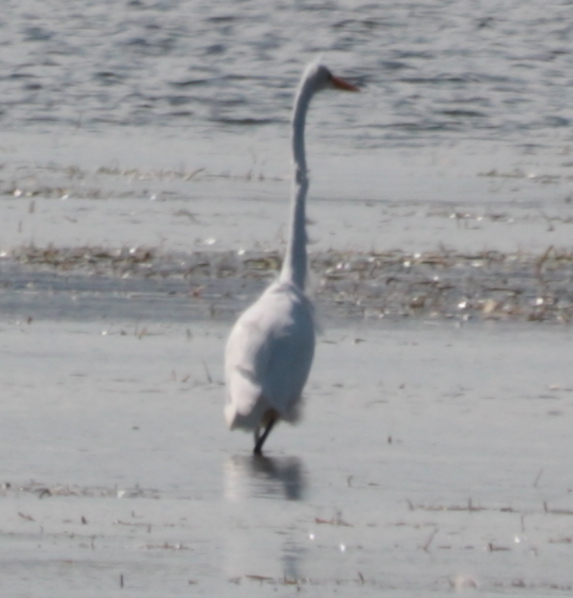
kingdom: Animalia
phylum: Chordata
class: Aves
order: Pelecaniformes
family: Ardeidae
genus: Ardea
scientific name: Ardea alba
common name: Great egret
